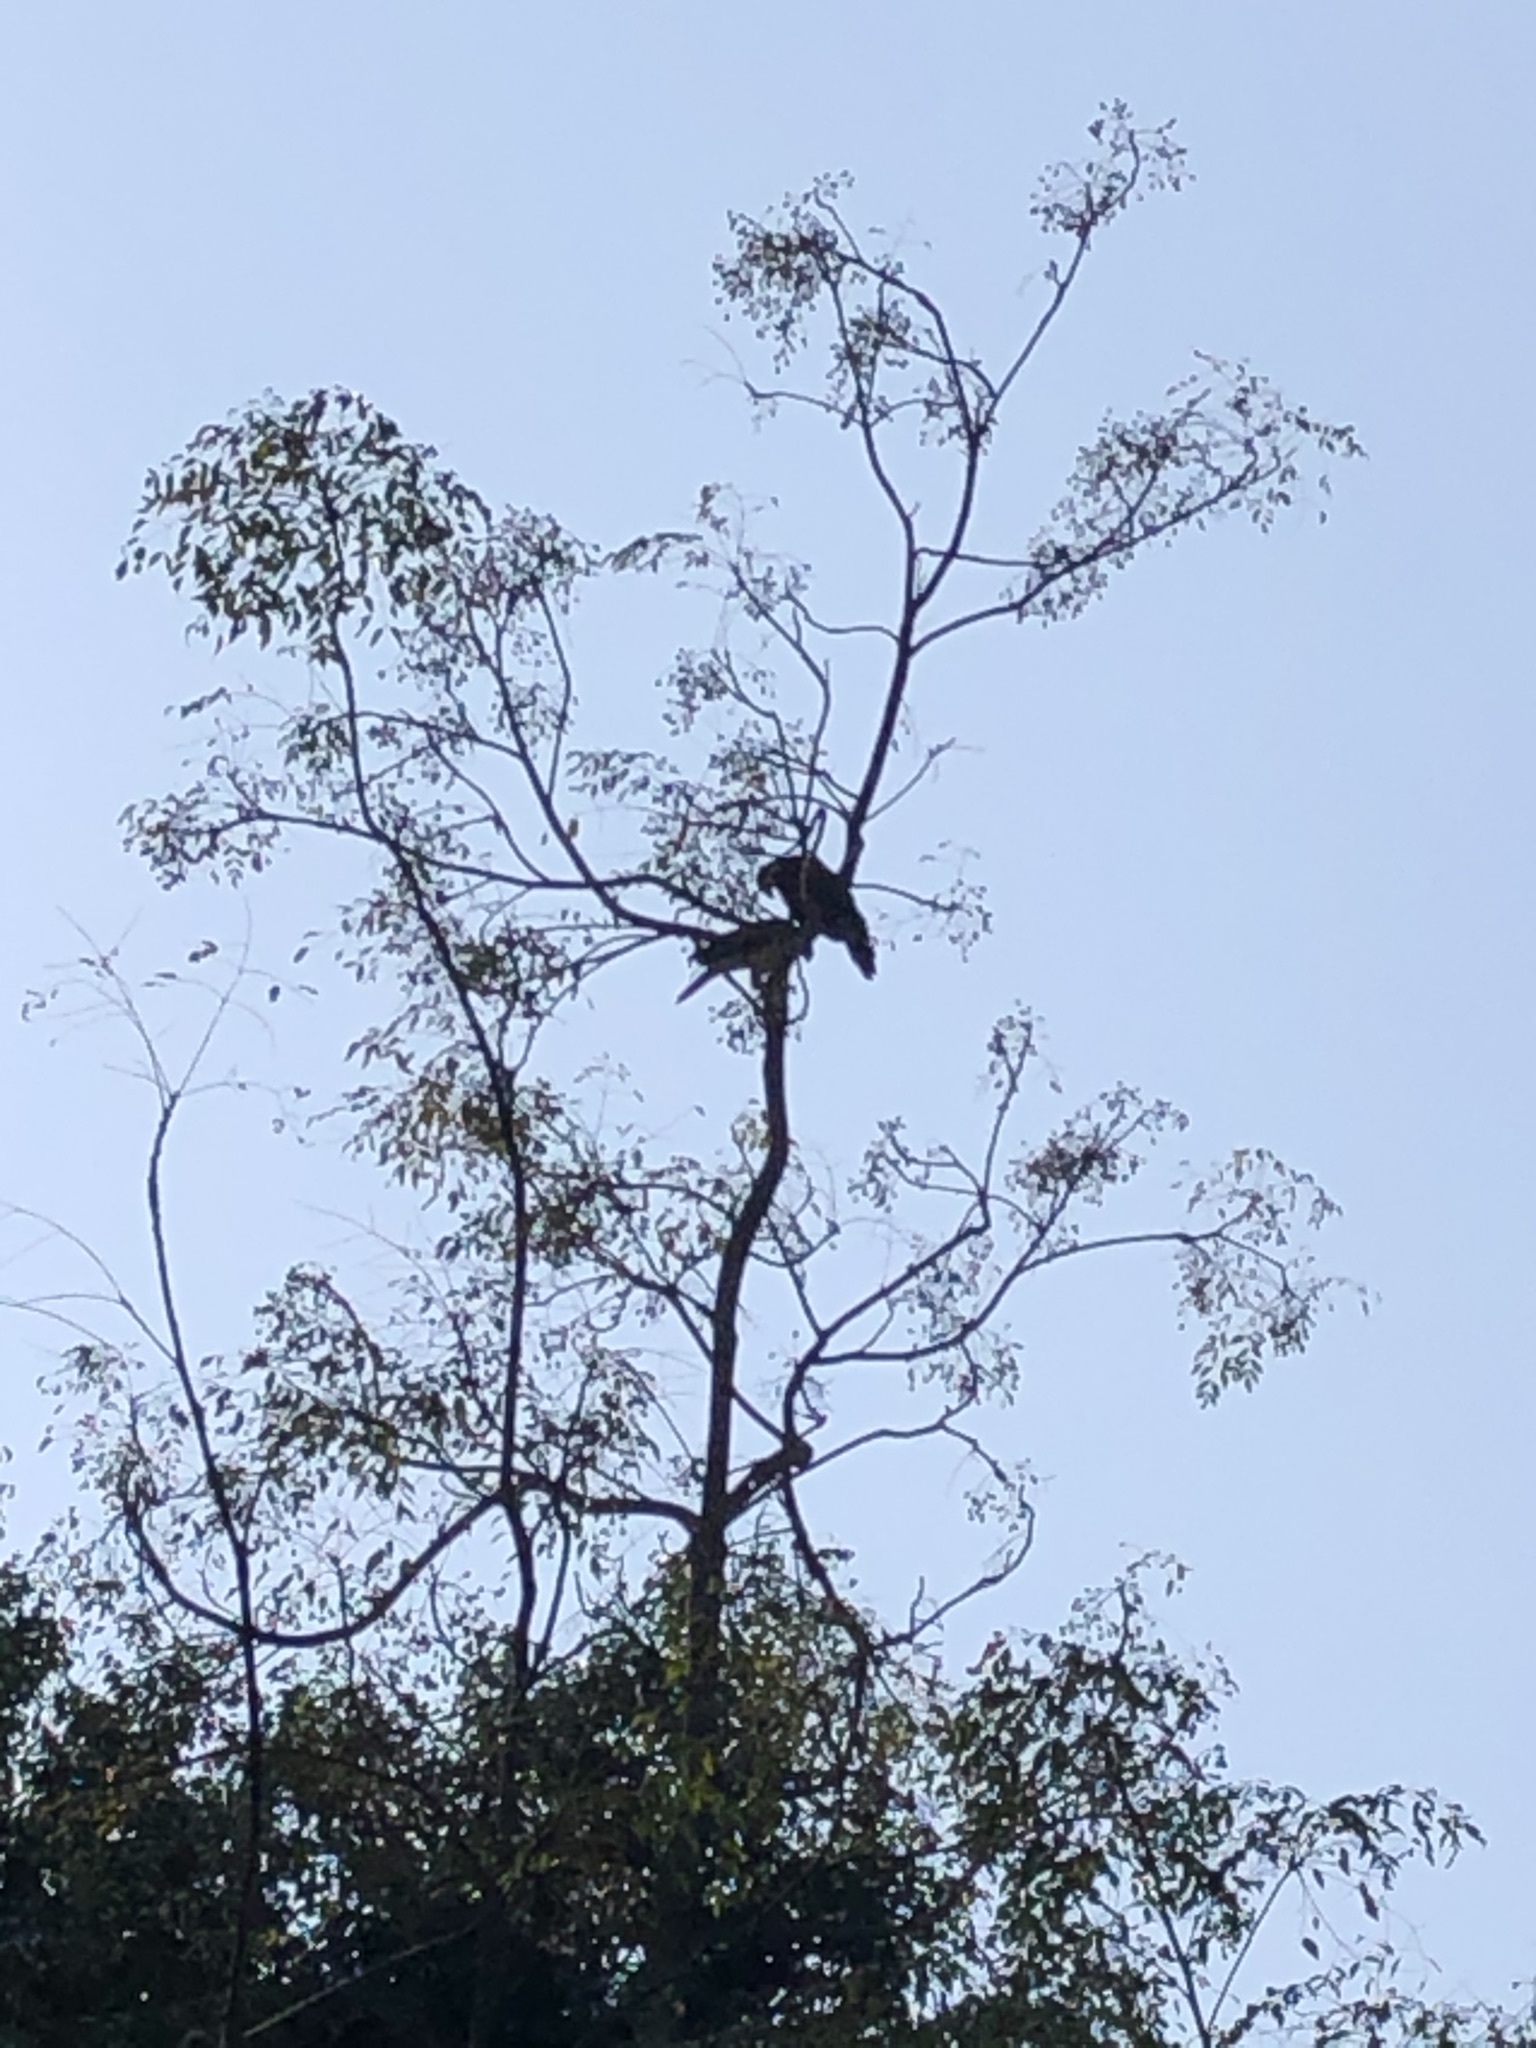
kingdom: Animalia
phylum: Chordata
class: Aves
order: Accipitriformes
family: Accipitridae
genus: Parabuteo
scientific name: Parabuteo unicinctus
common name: Harris's hawk
